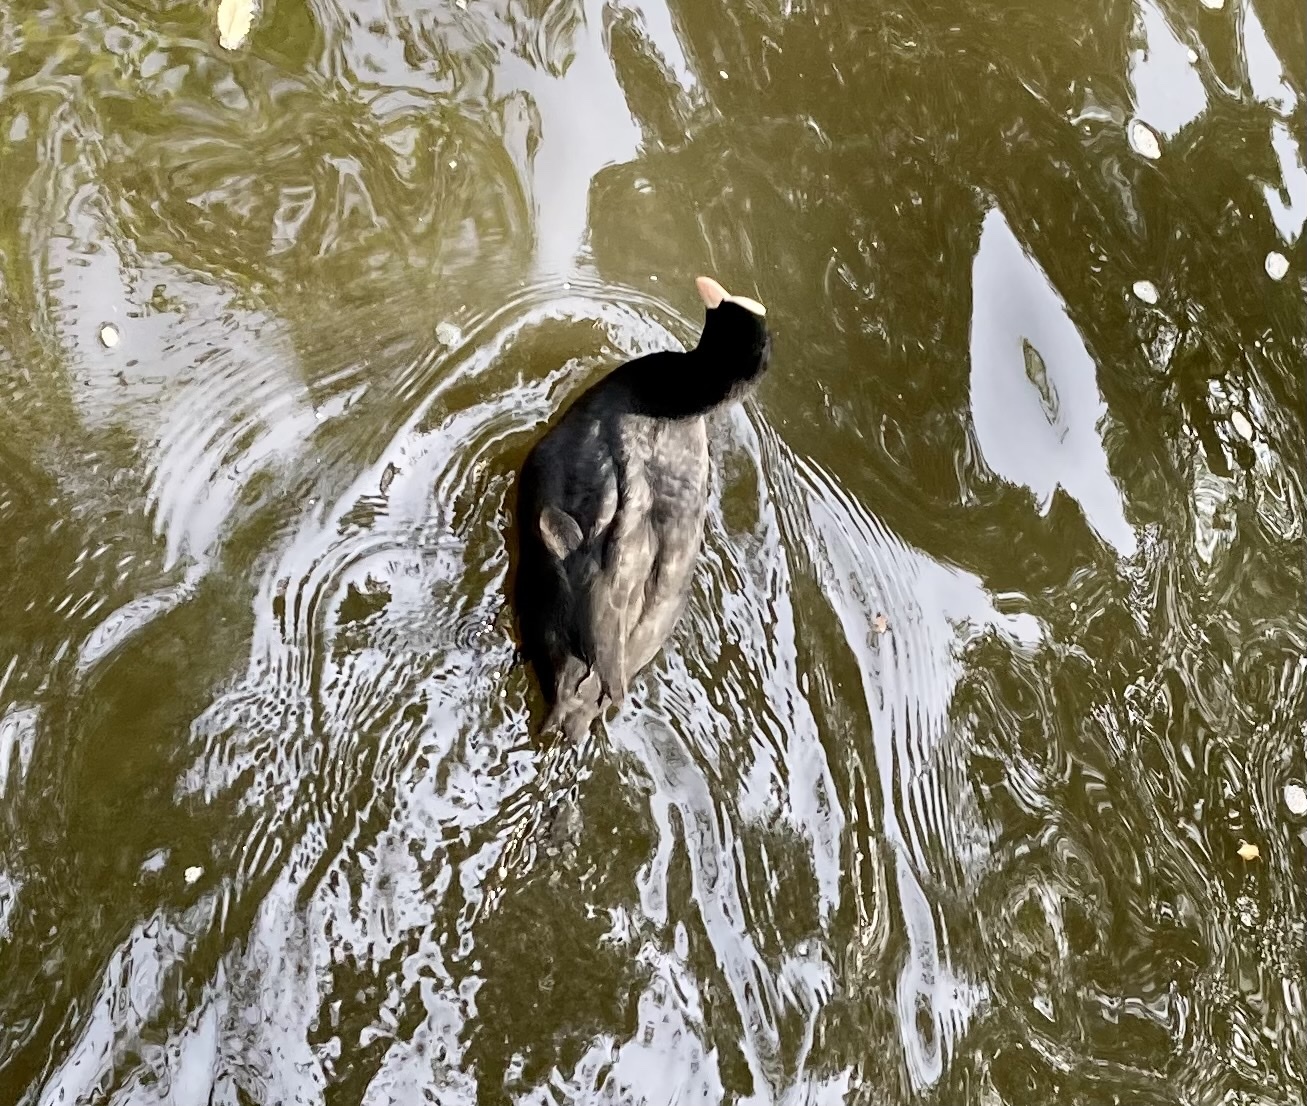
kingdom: Animalia
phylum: Chordata
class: Aves
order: Gruiformes
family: Rallidae
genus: Fulica
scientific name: Fulica atra
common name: Eurasian coot
